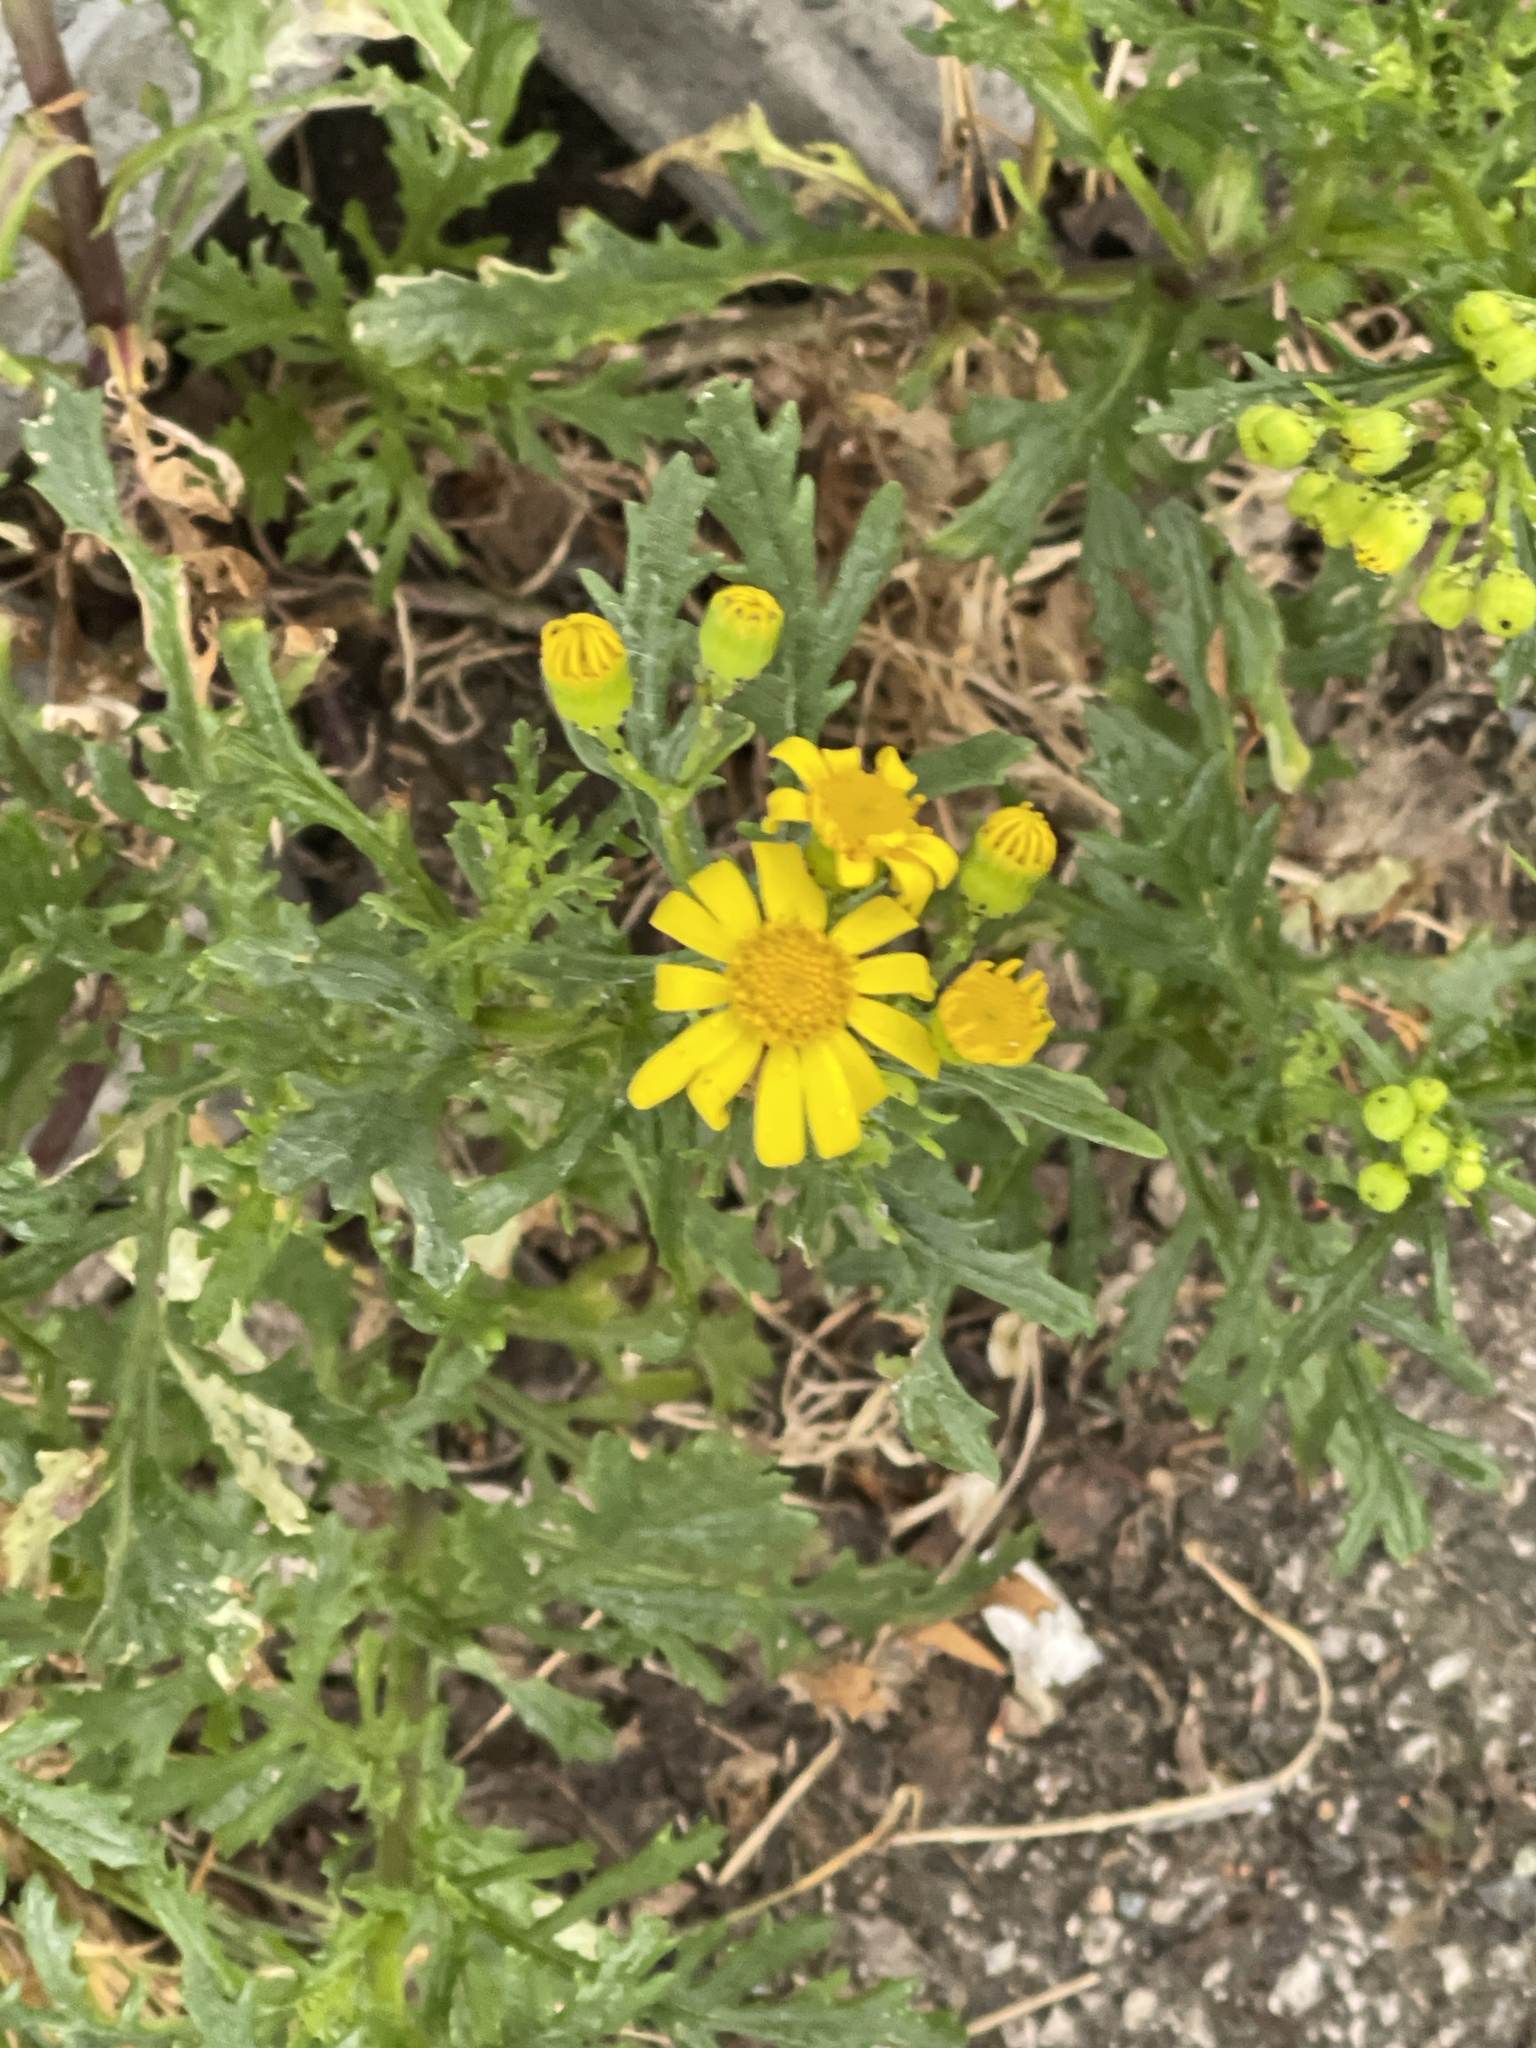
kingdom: Plantae
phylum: Tracheophyta
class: Magnoliopsida
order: Asterales
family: Asteraceae
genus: Senecio
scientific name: Senecio squalidus
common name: Oxford ragwort
